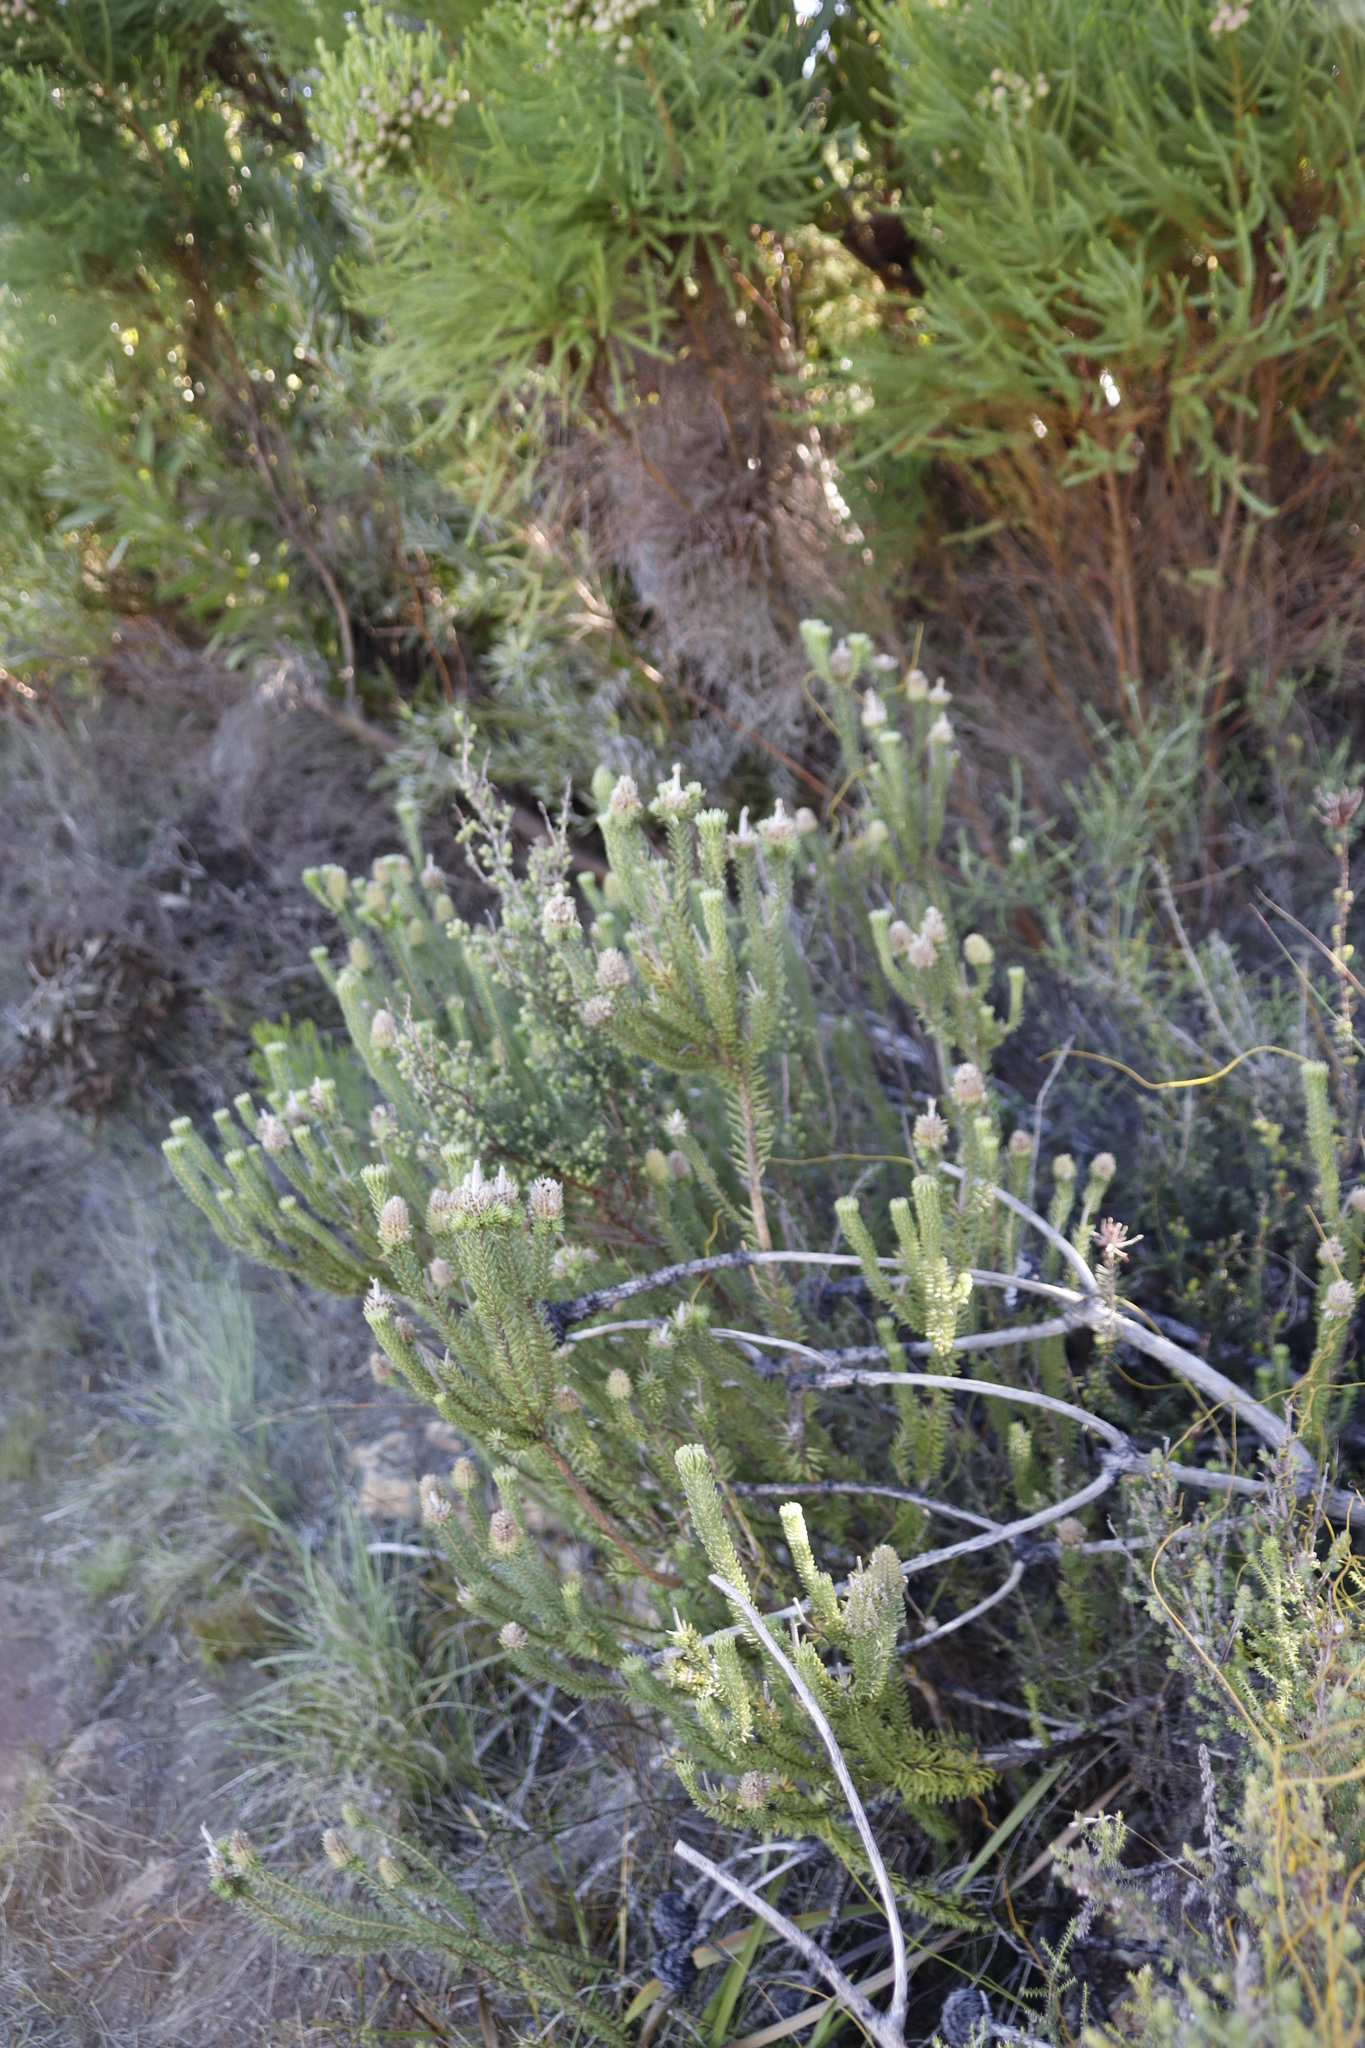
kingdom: Plantae
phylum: Tracheophyta
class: Magnoliopsida
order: Lamiales
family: Stilbaceae
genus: Stilbe
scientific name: Stilbe vestita
